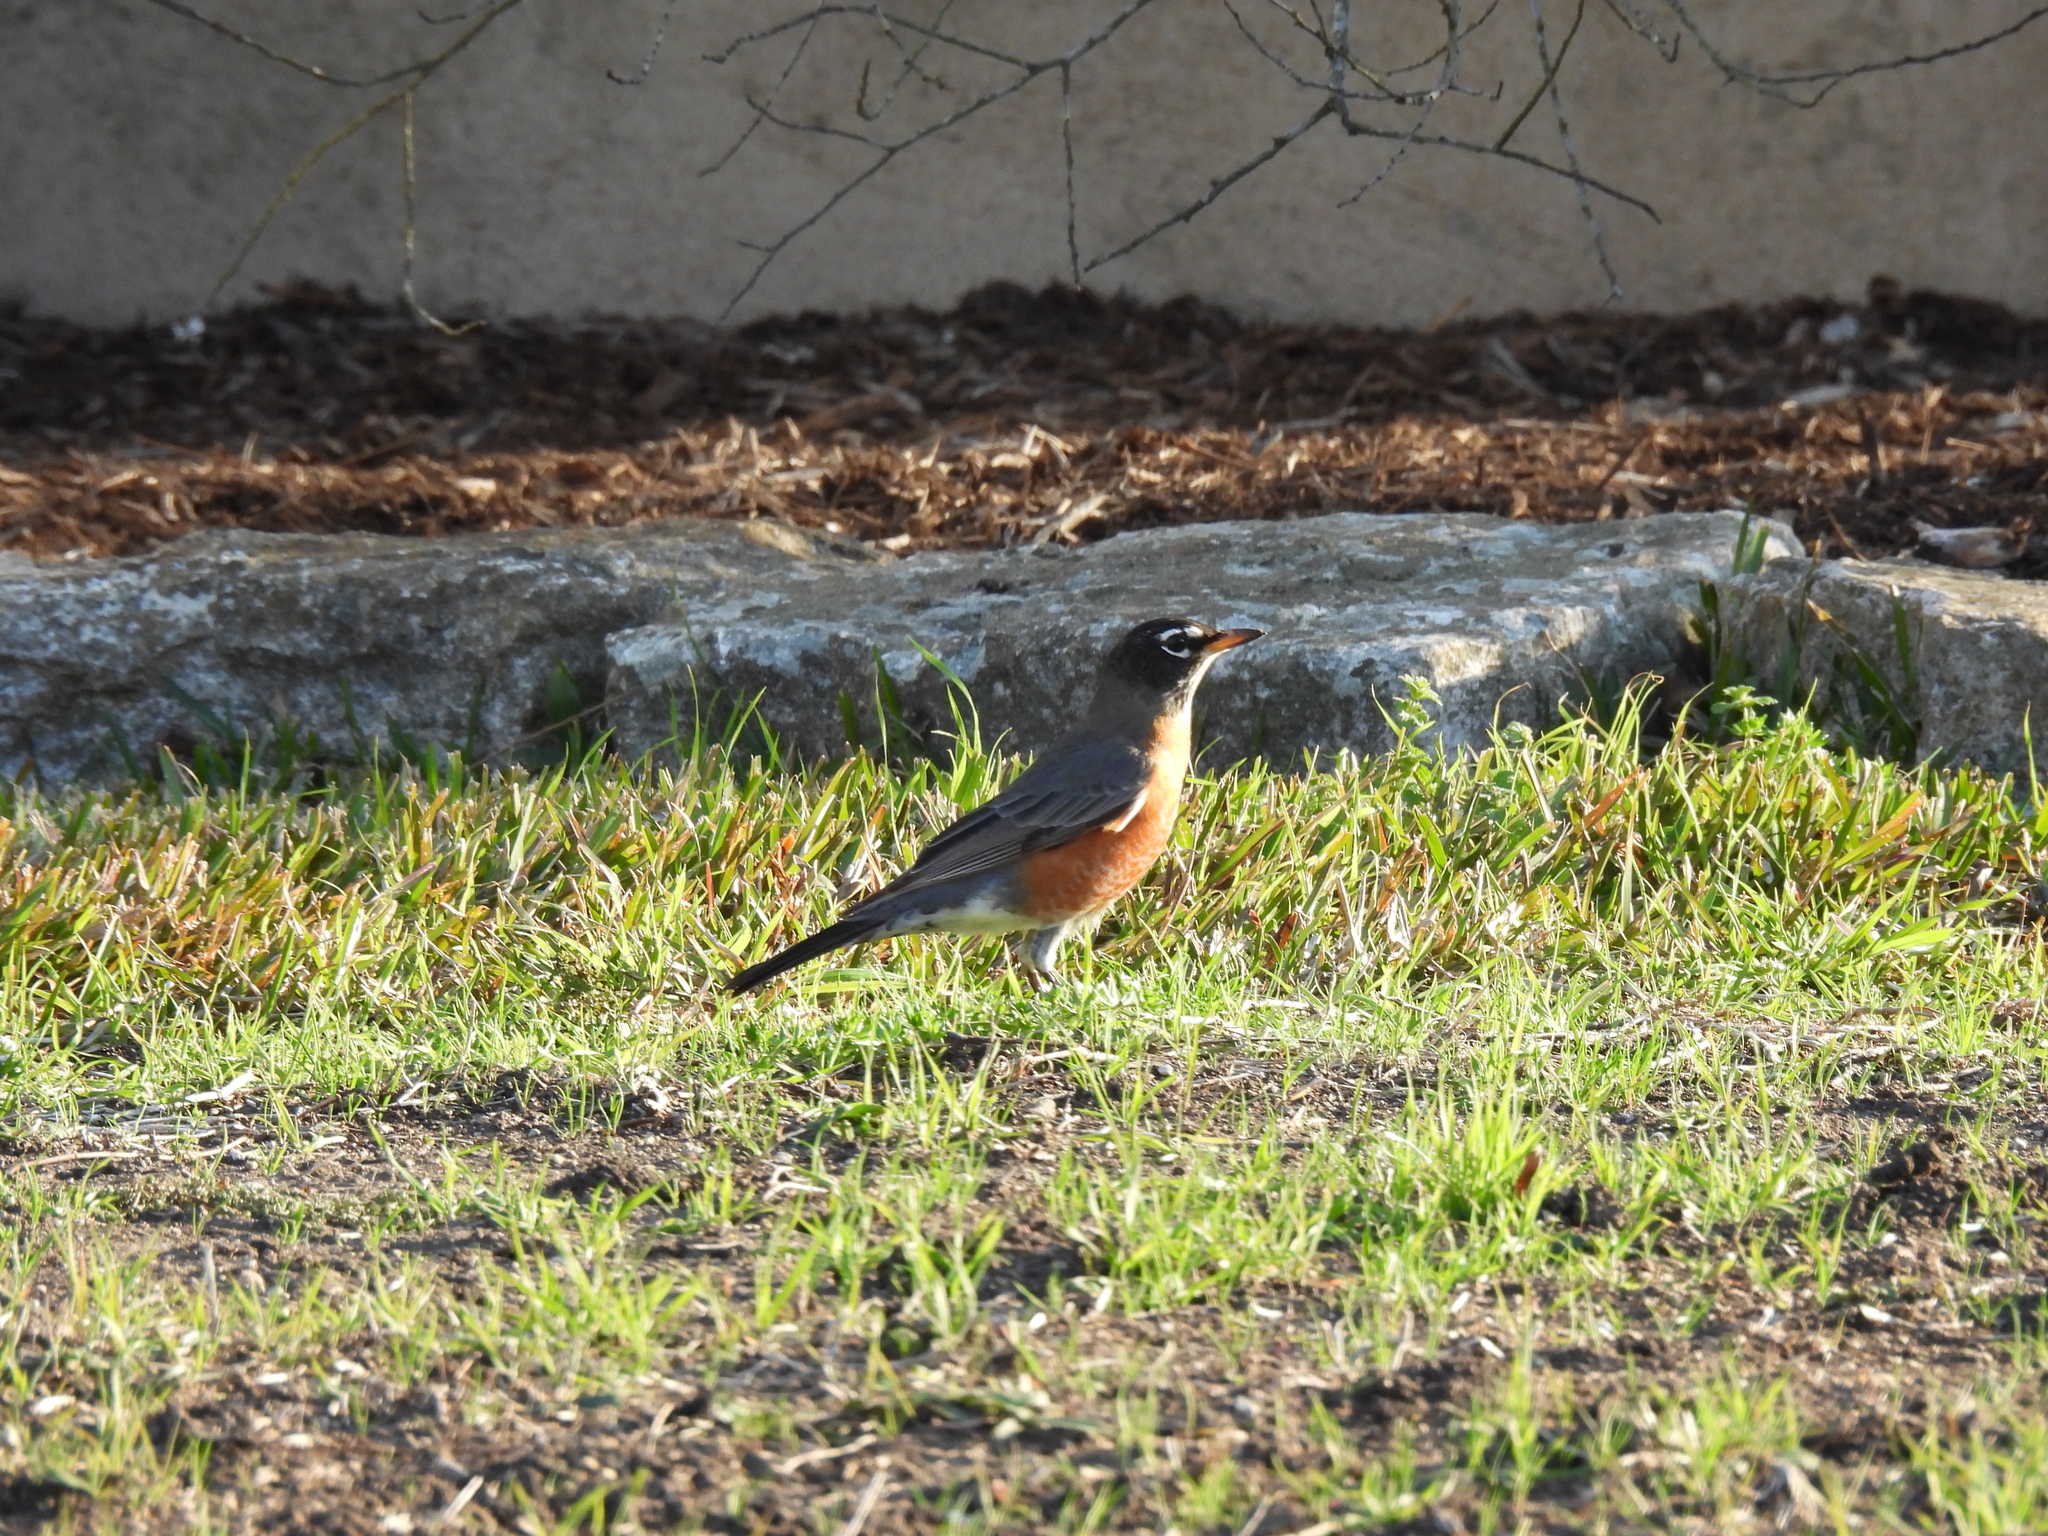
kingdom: Animalia
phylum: Chordata
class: Aves
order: Passeriformes
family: Turdidae
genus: Turdus
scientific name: Turdus migratorius
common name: American robin
